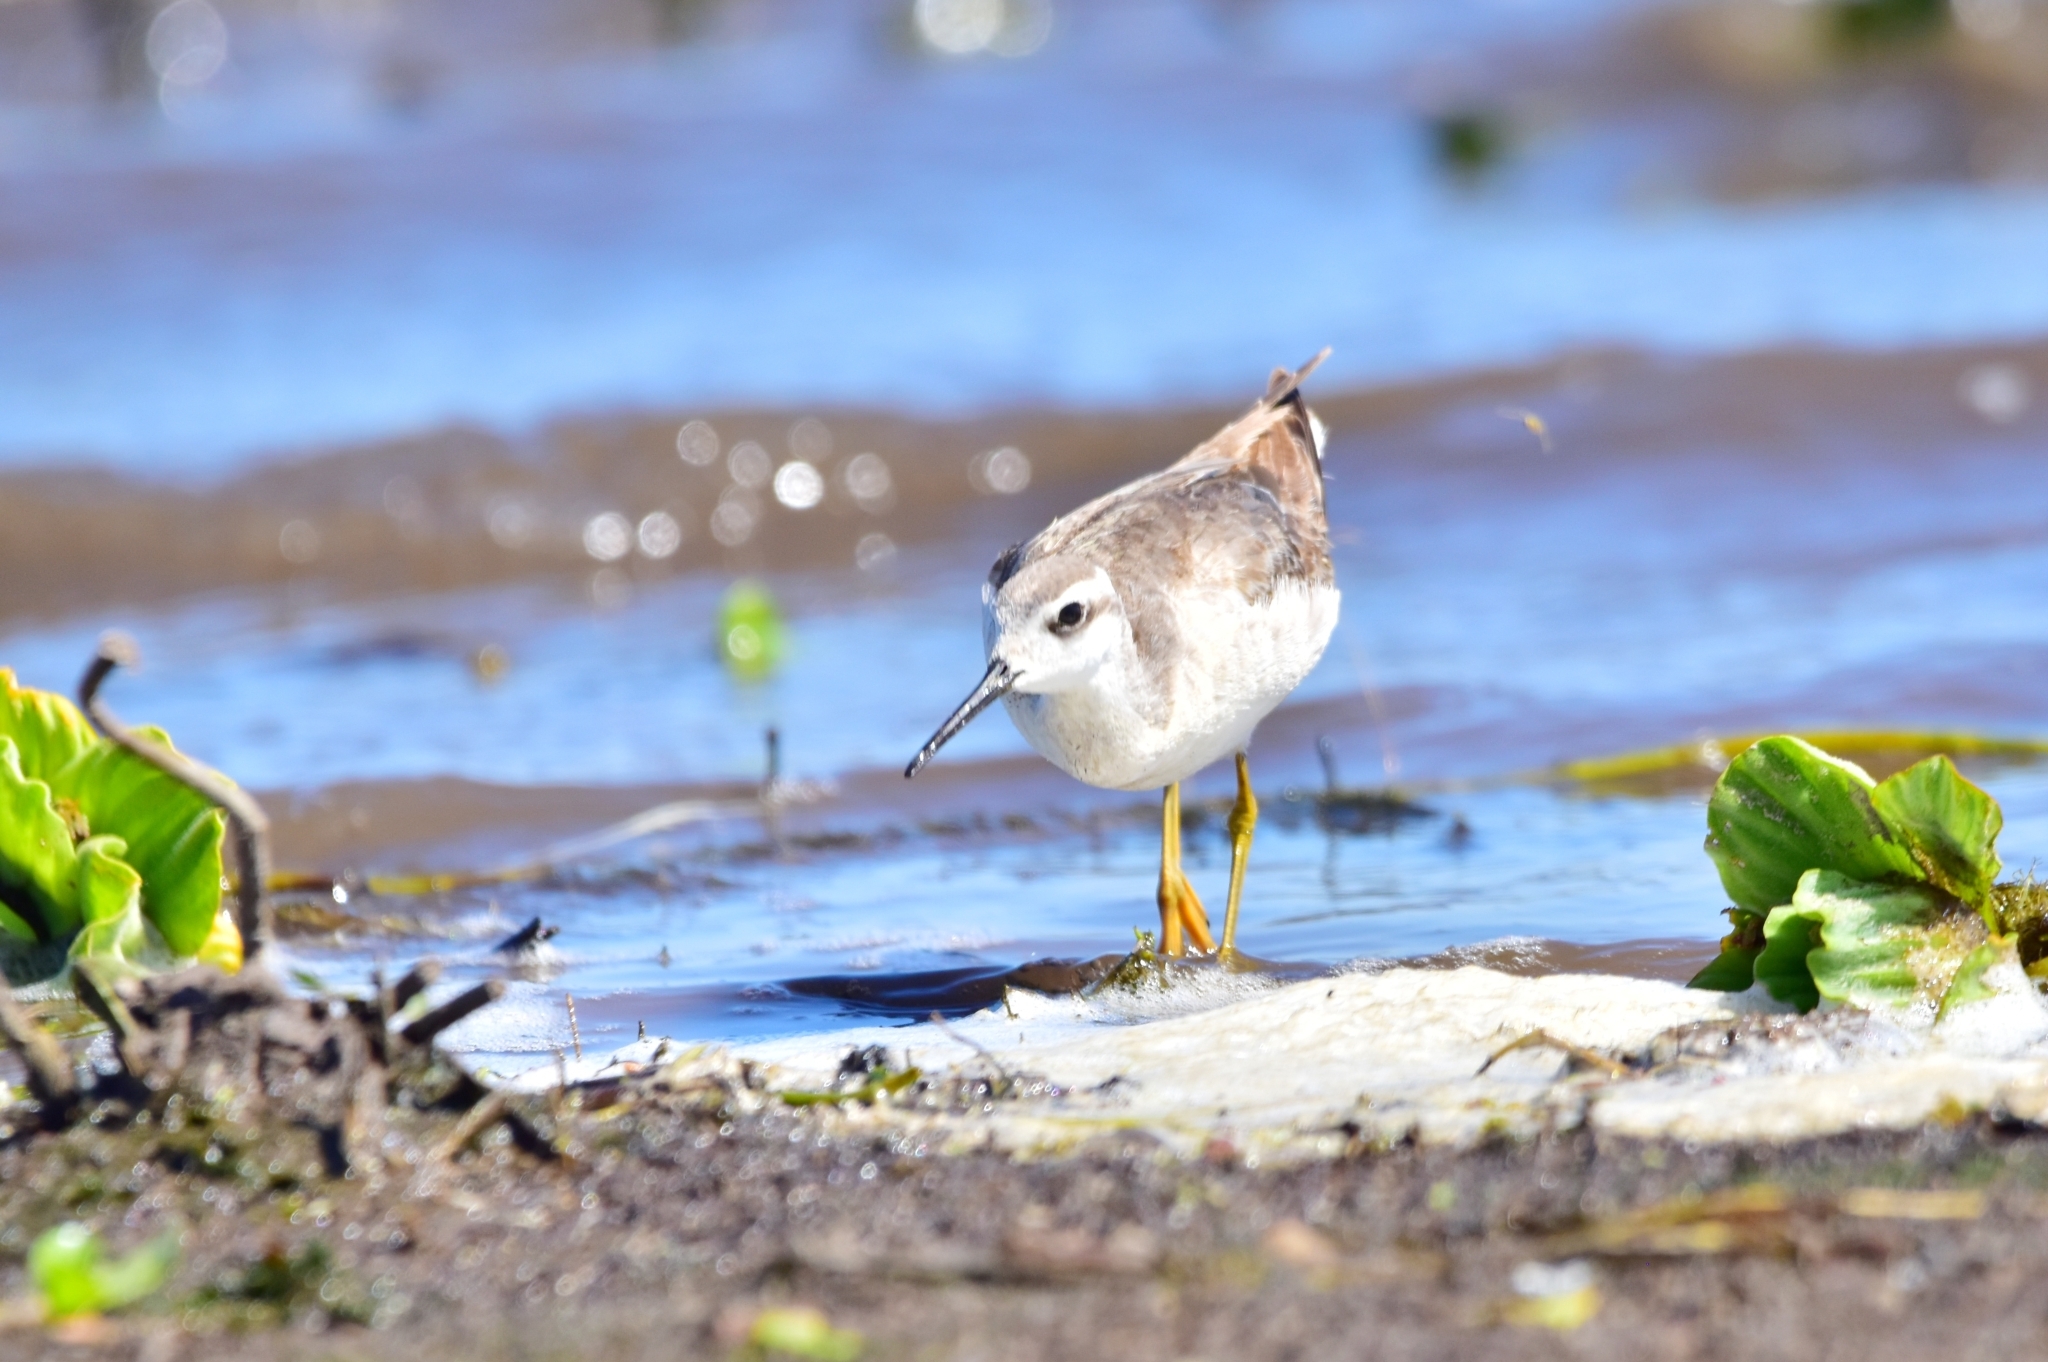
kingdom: Animalia
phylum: Chordata
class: Aves
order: Charadriiformes
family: Scolopacidae
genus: Phalaropus
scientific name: Phalaropus tricolor
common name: Wilson's phalarope
